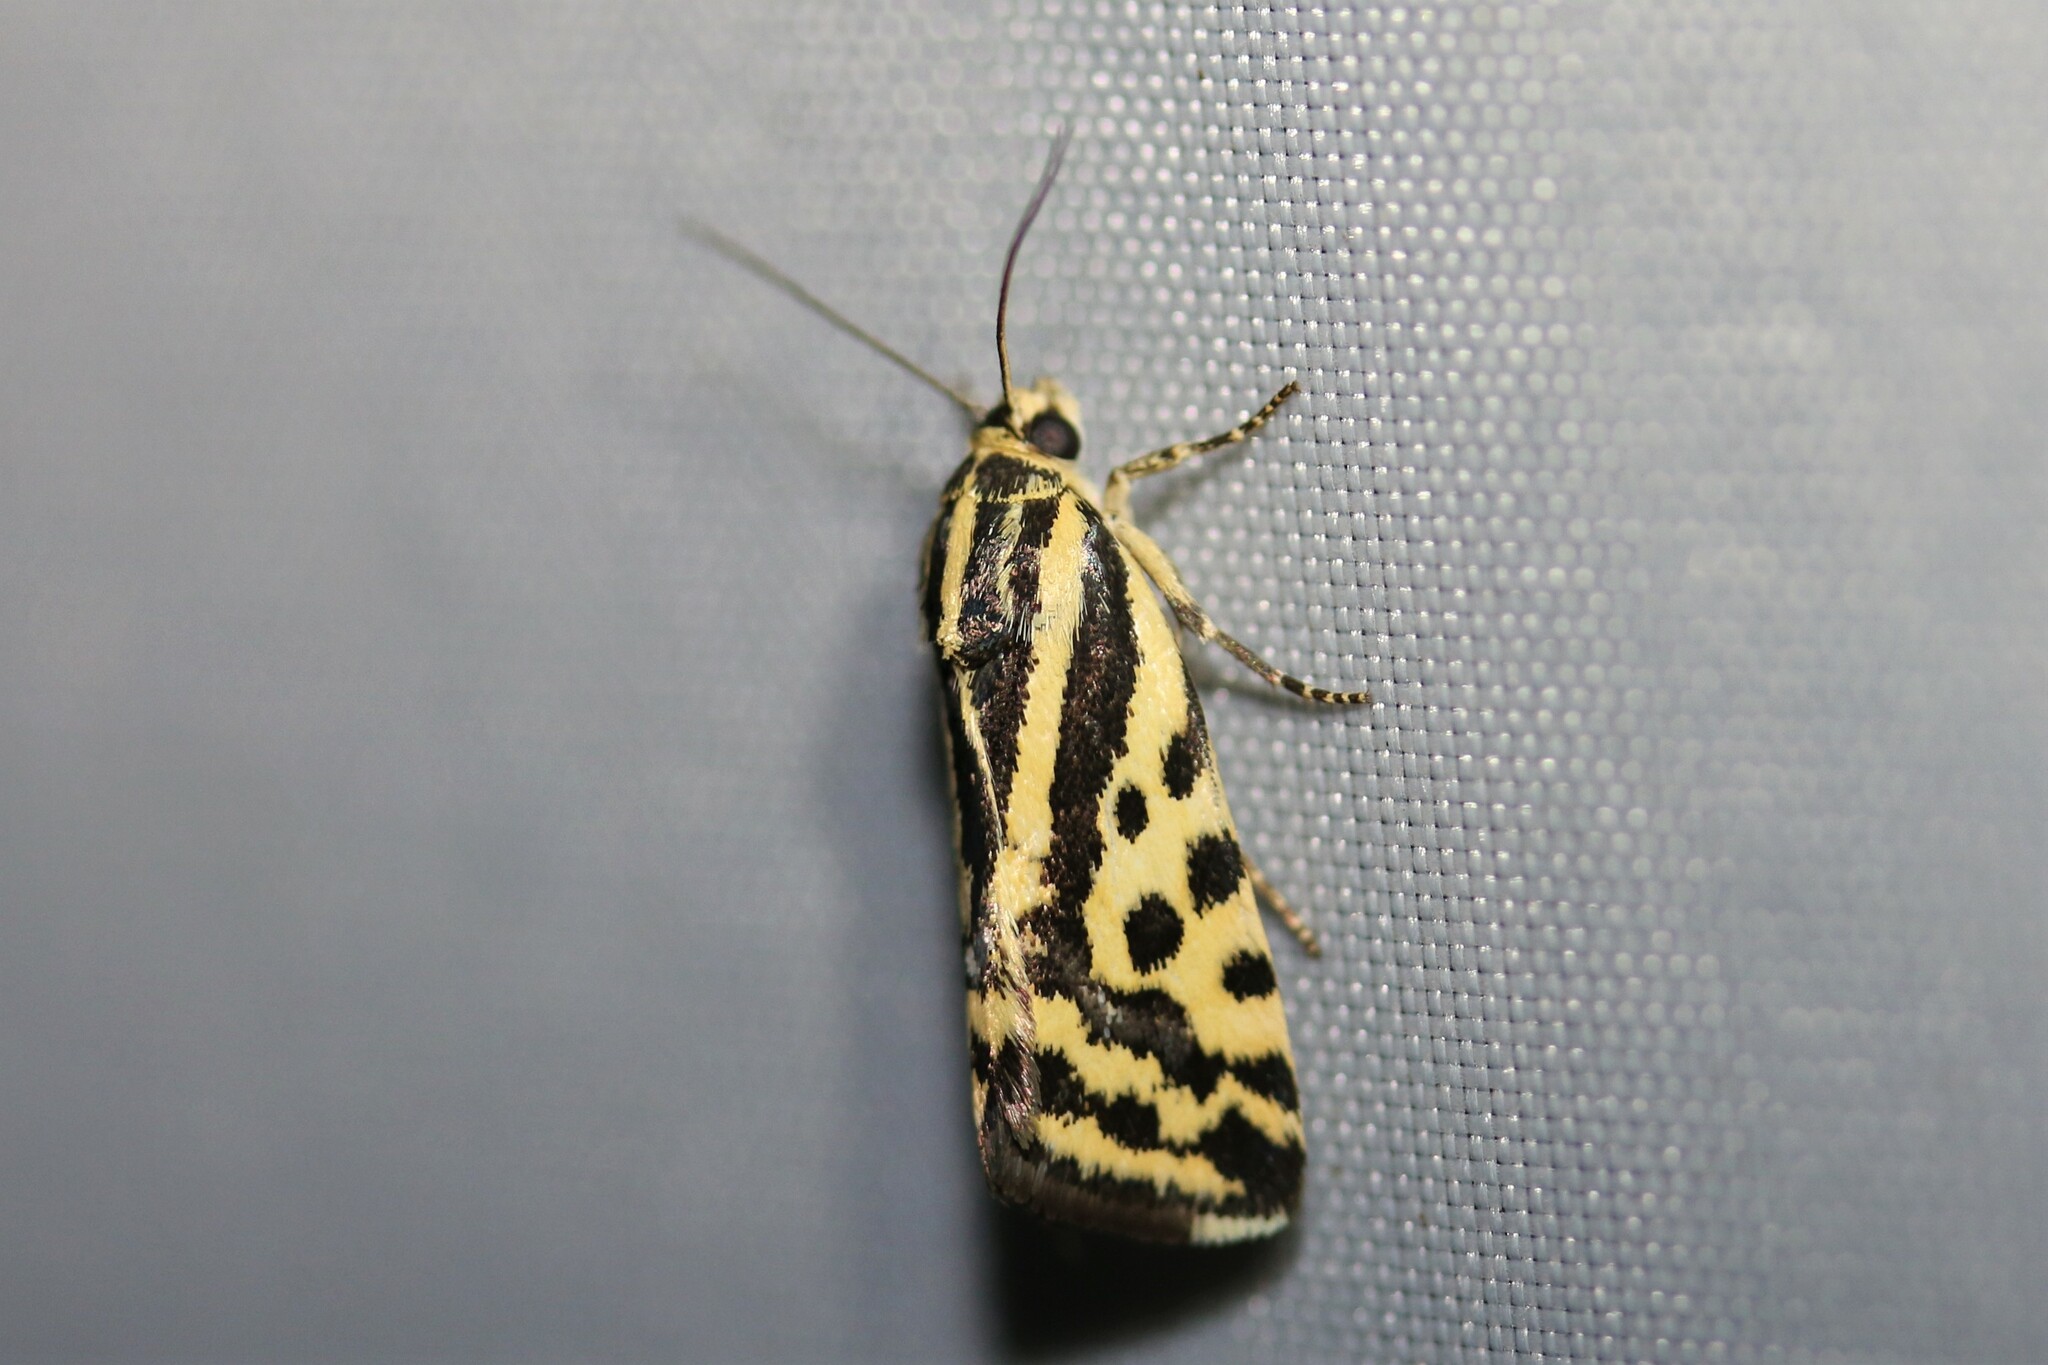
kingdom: Animalia
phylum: Arthropoda
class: Insecta
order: Lepidoptera
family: Noctuidae
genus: Acontia
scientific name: Acontia trabealis
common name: Spotted sulphur
